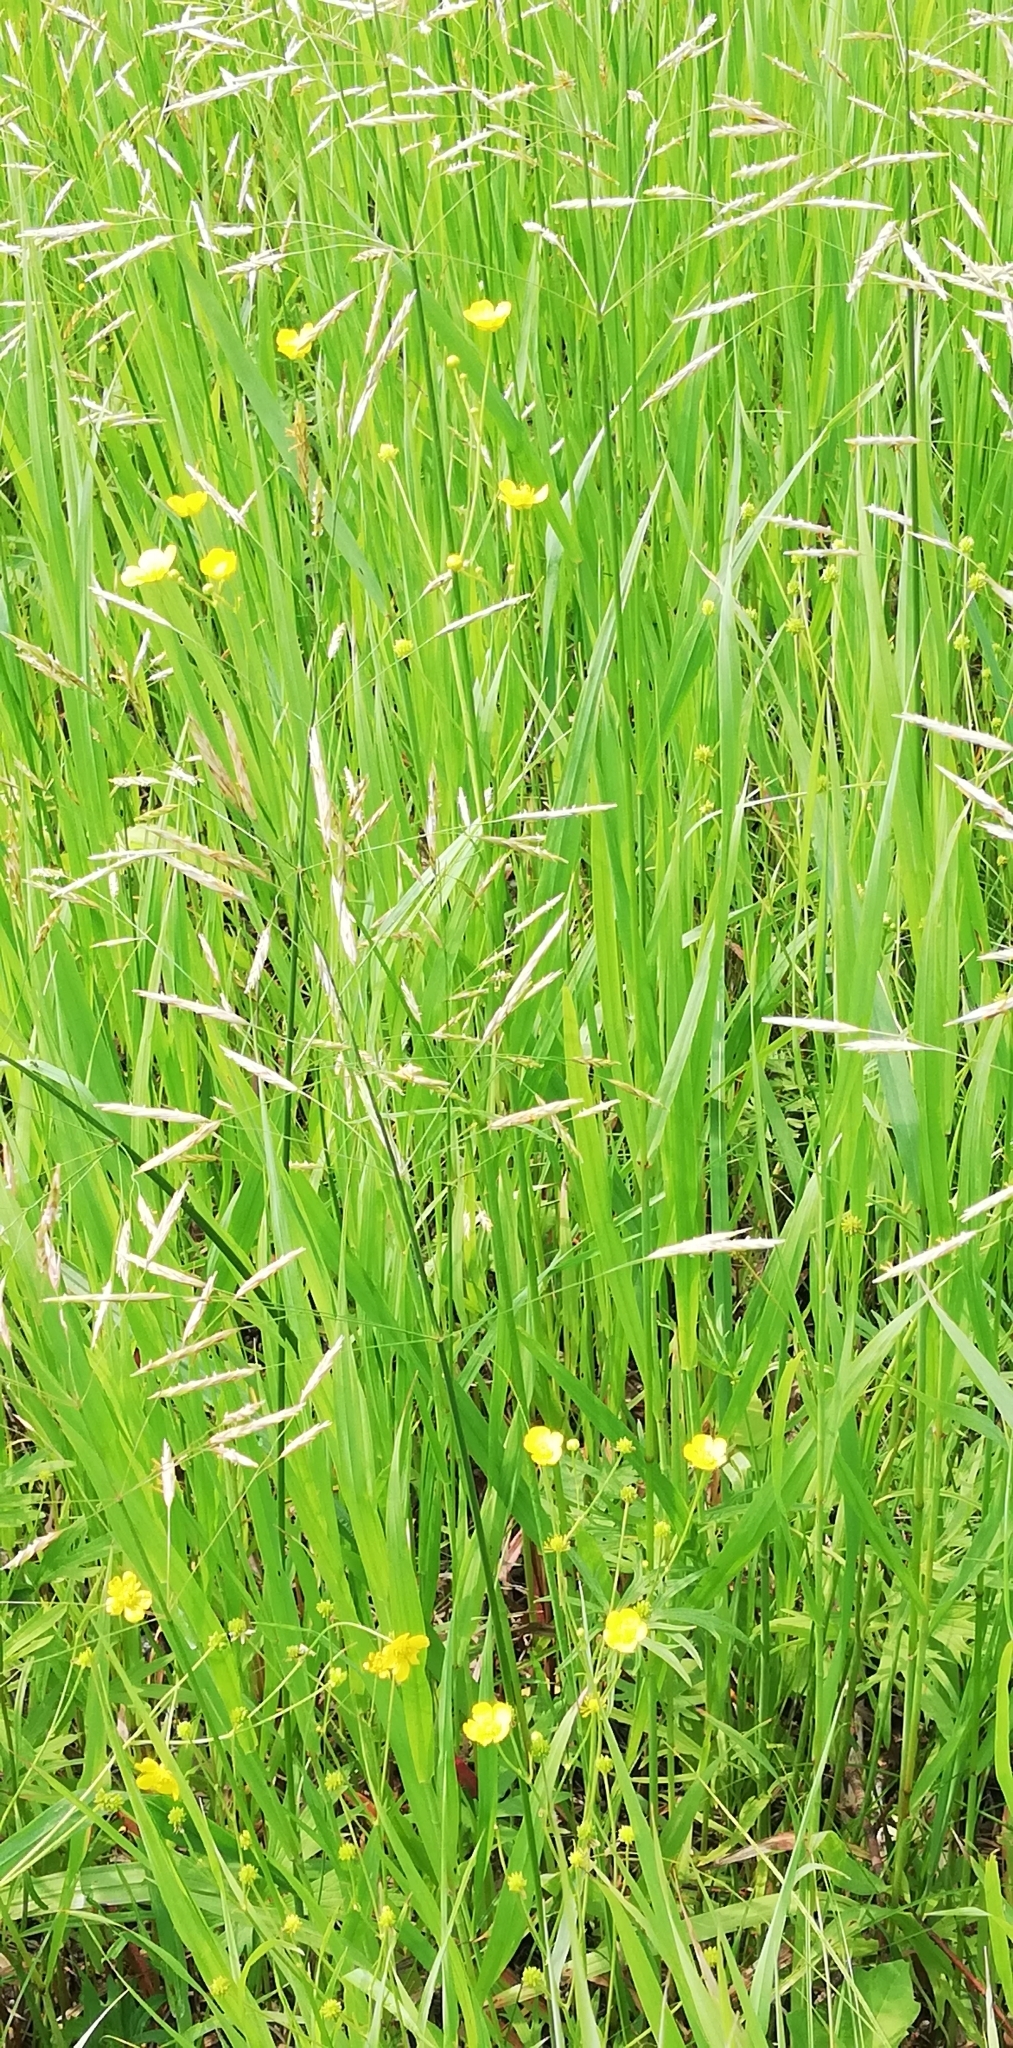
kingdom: Plantae
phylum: Tracheophyta
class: Liliopsida
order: Poales
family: Poaceae
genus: Bromus
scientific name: Bromus inermis
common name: Smooth brome
